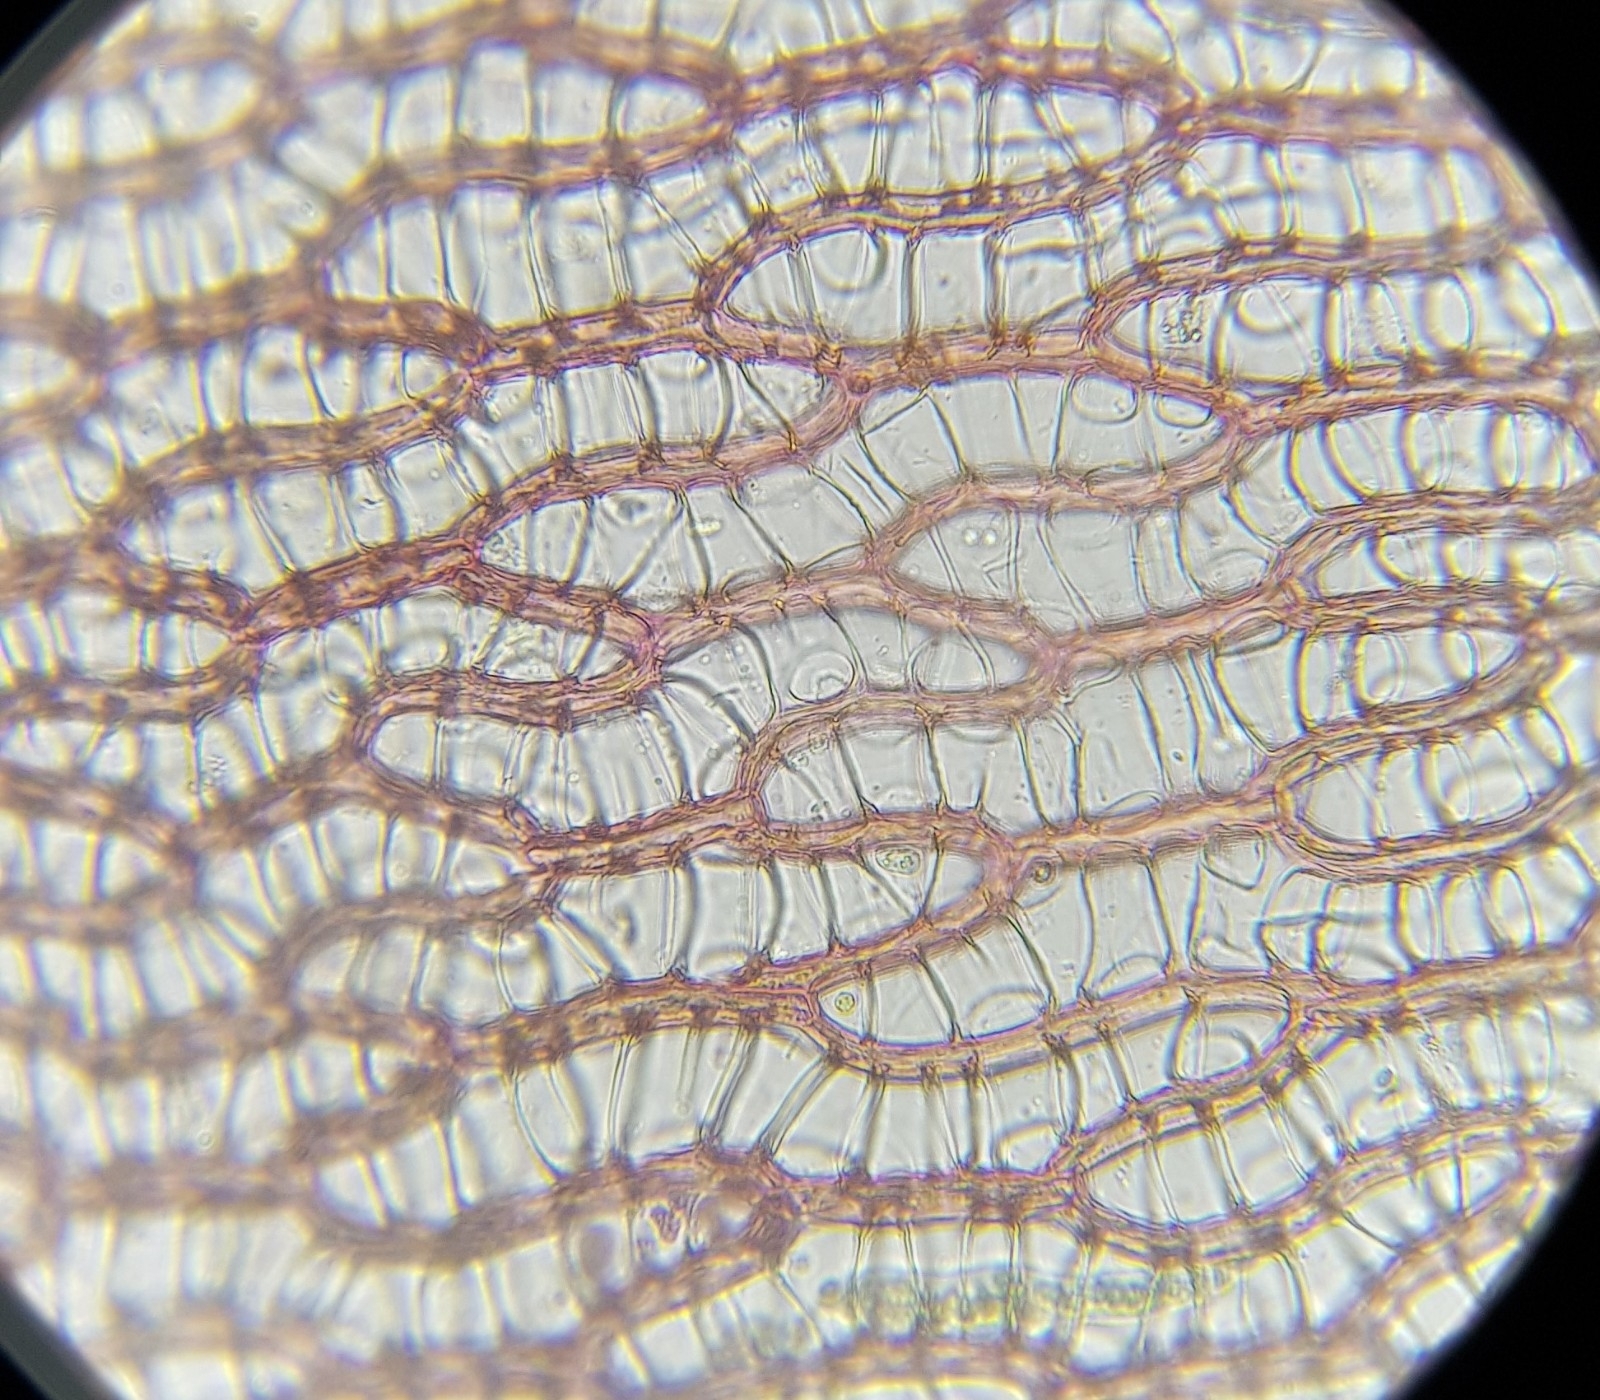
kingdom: Plantae
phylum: Bryophyta
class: Sphagnopsida
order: Sphagnales
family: Sphagnaceae
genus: Sphagnum
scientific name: Sphagnum russowii
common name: Russow's peat moss
